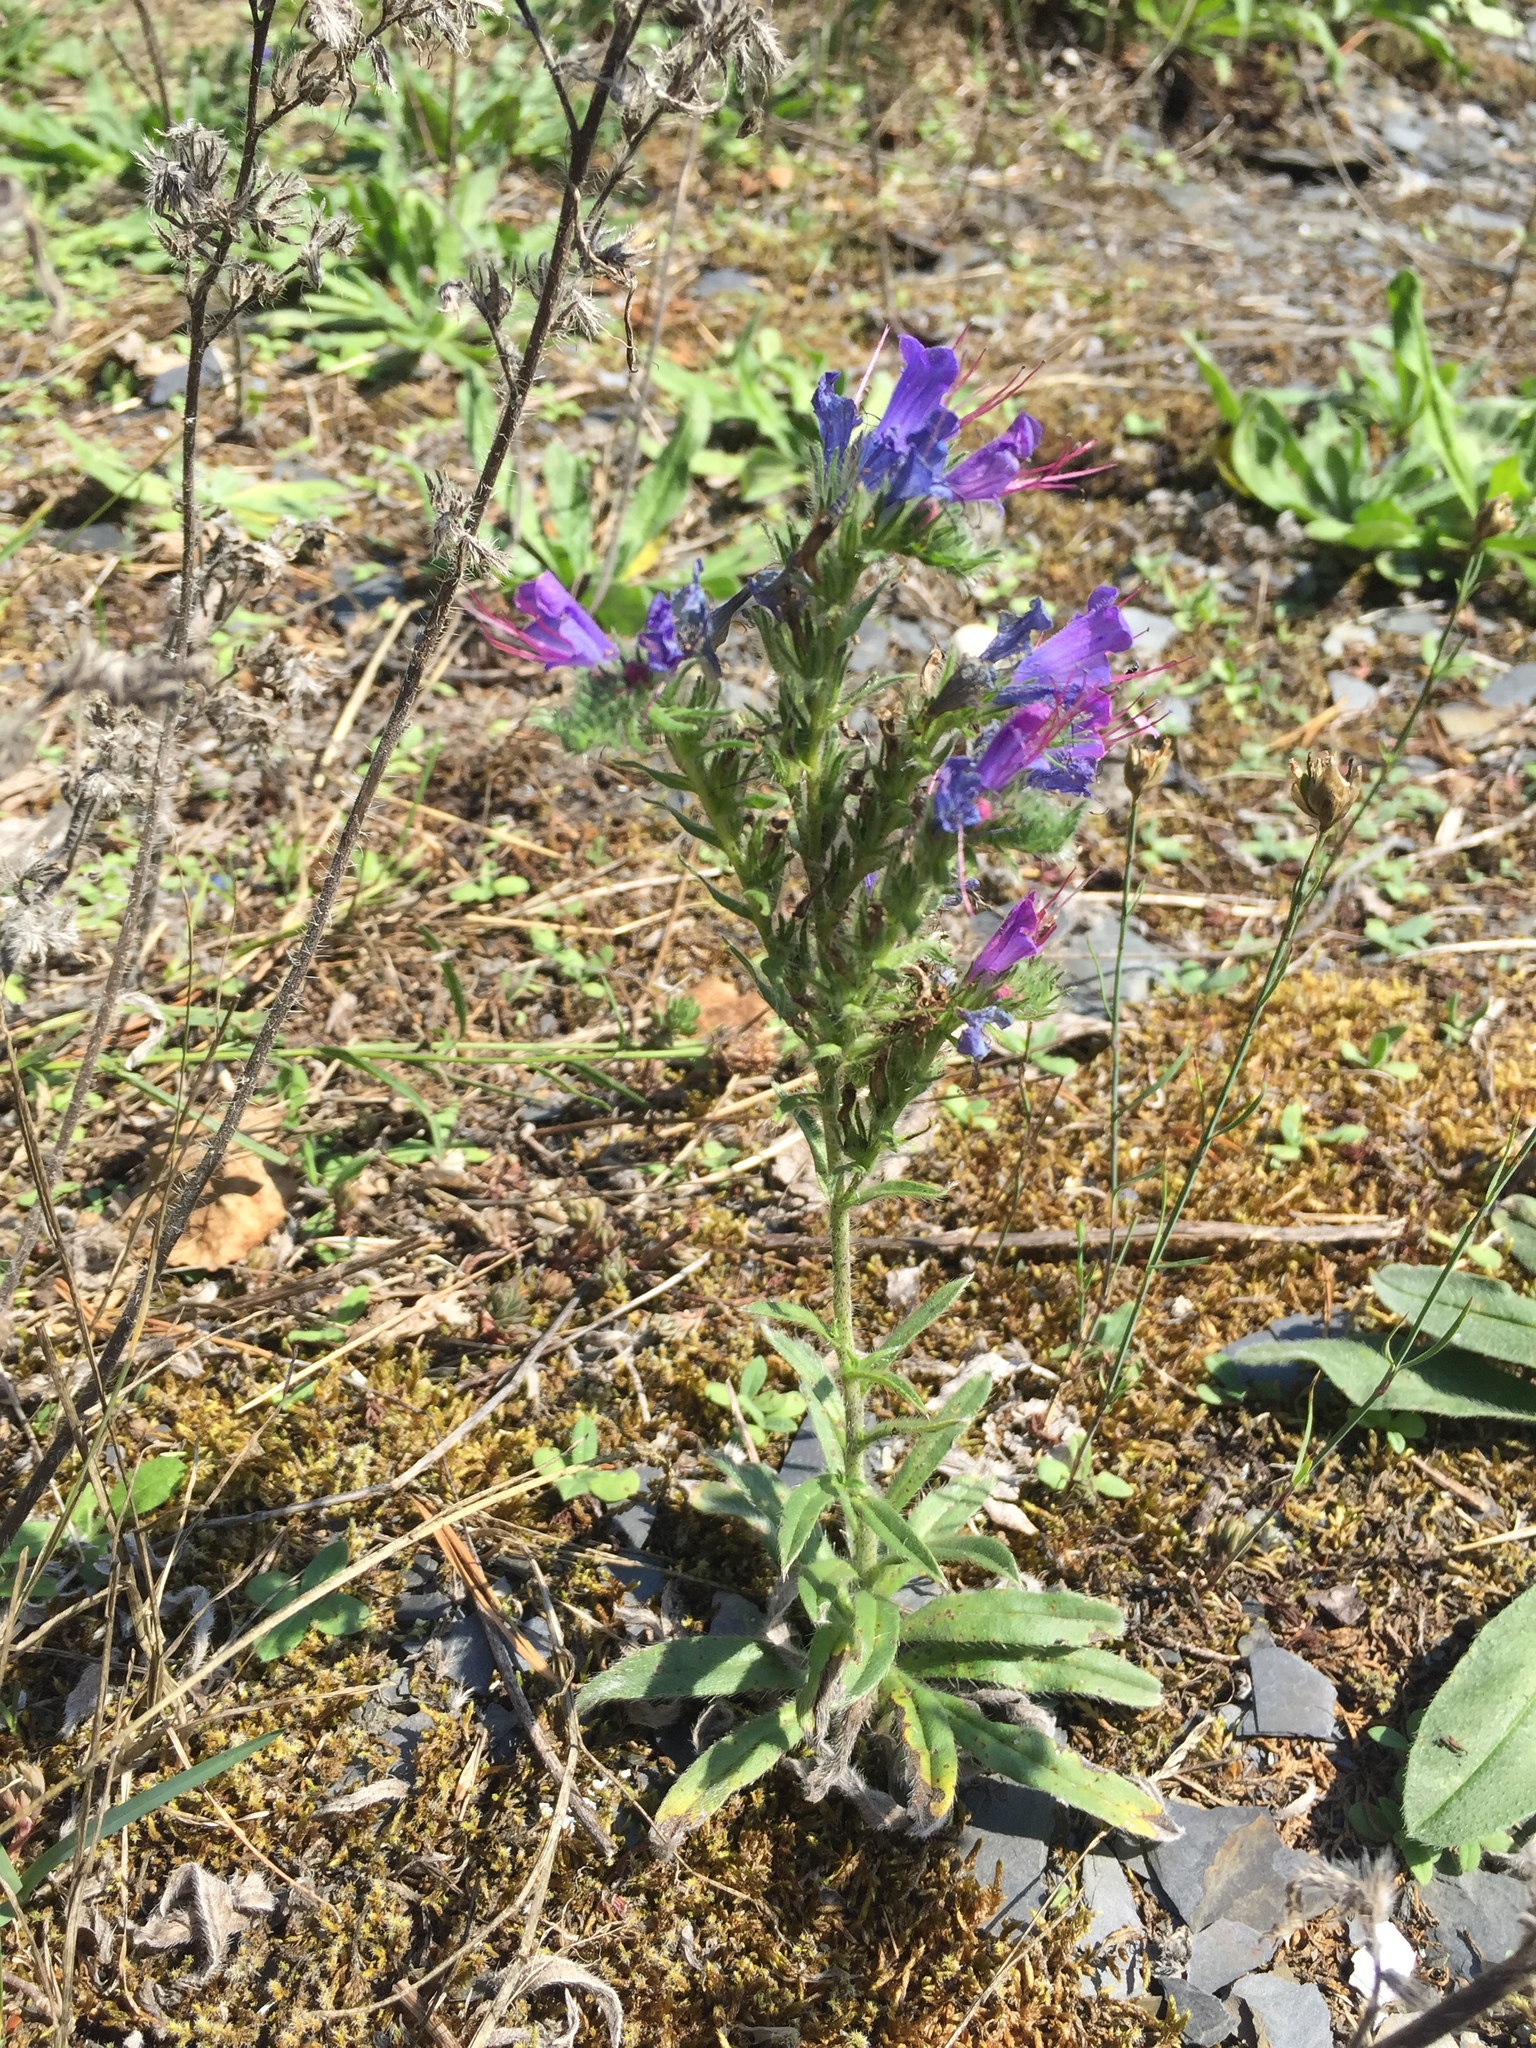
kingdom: Plantae
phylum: Tracheophyta
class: Magnoliopsida
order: Boraginales
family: Boraginaceae
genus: Echium
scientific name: Echium vulgare
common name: Common viper's bugloss
